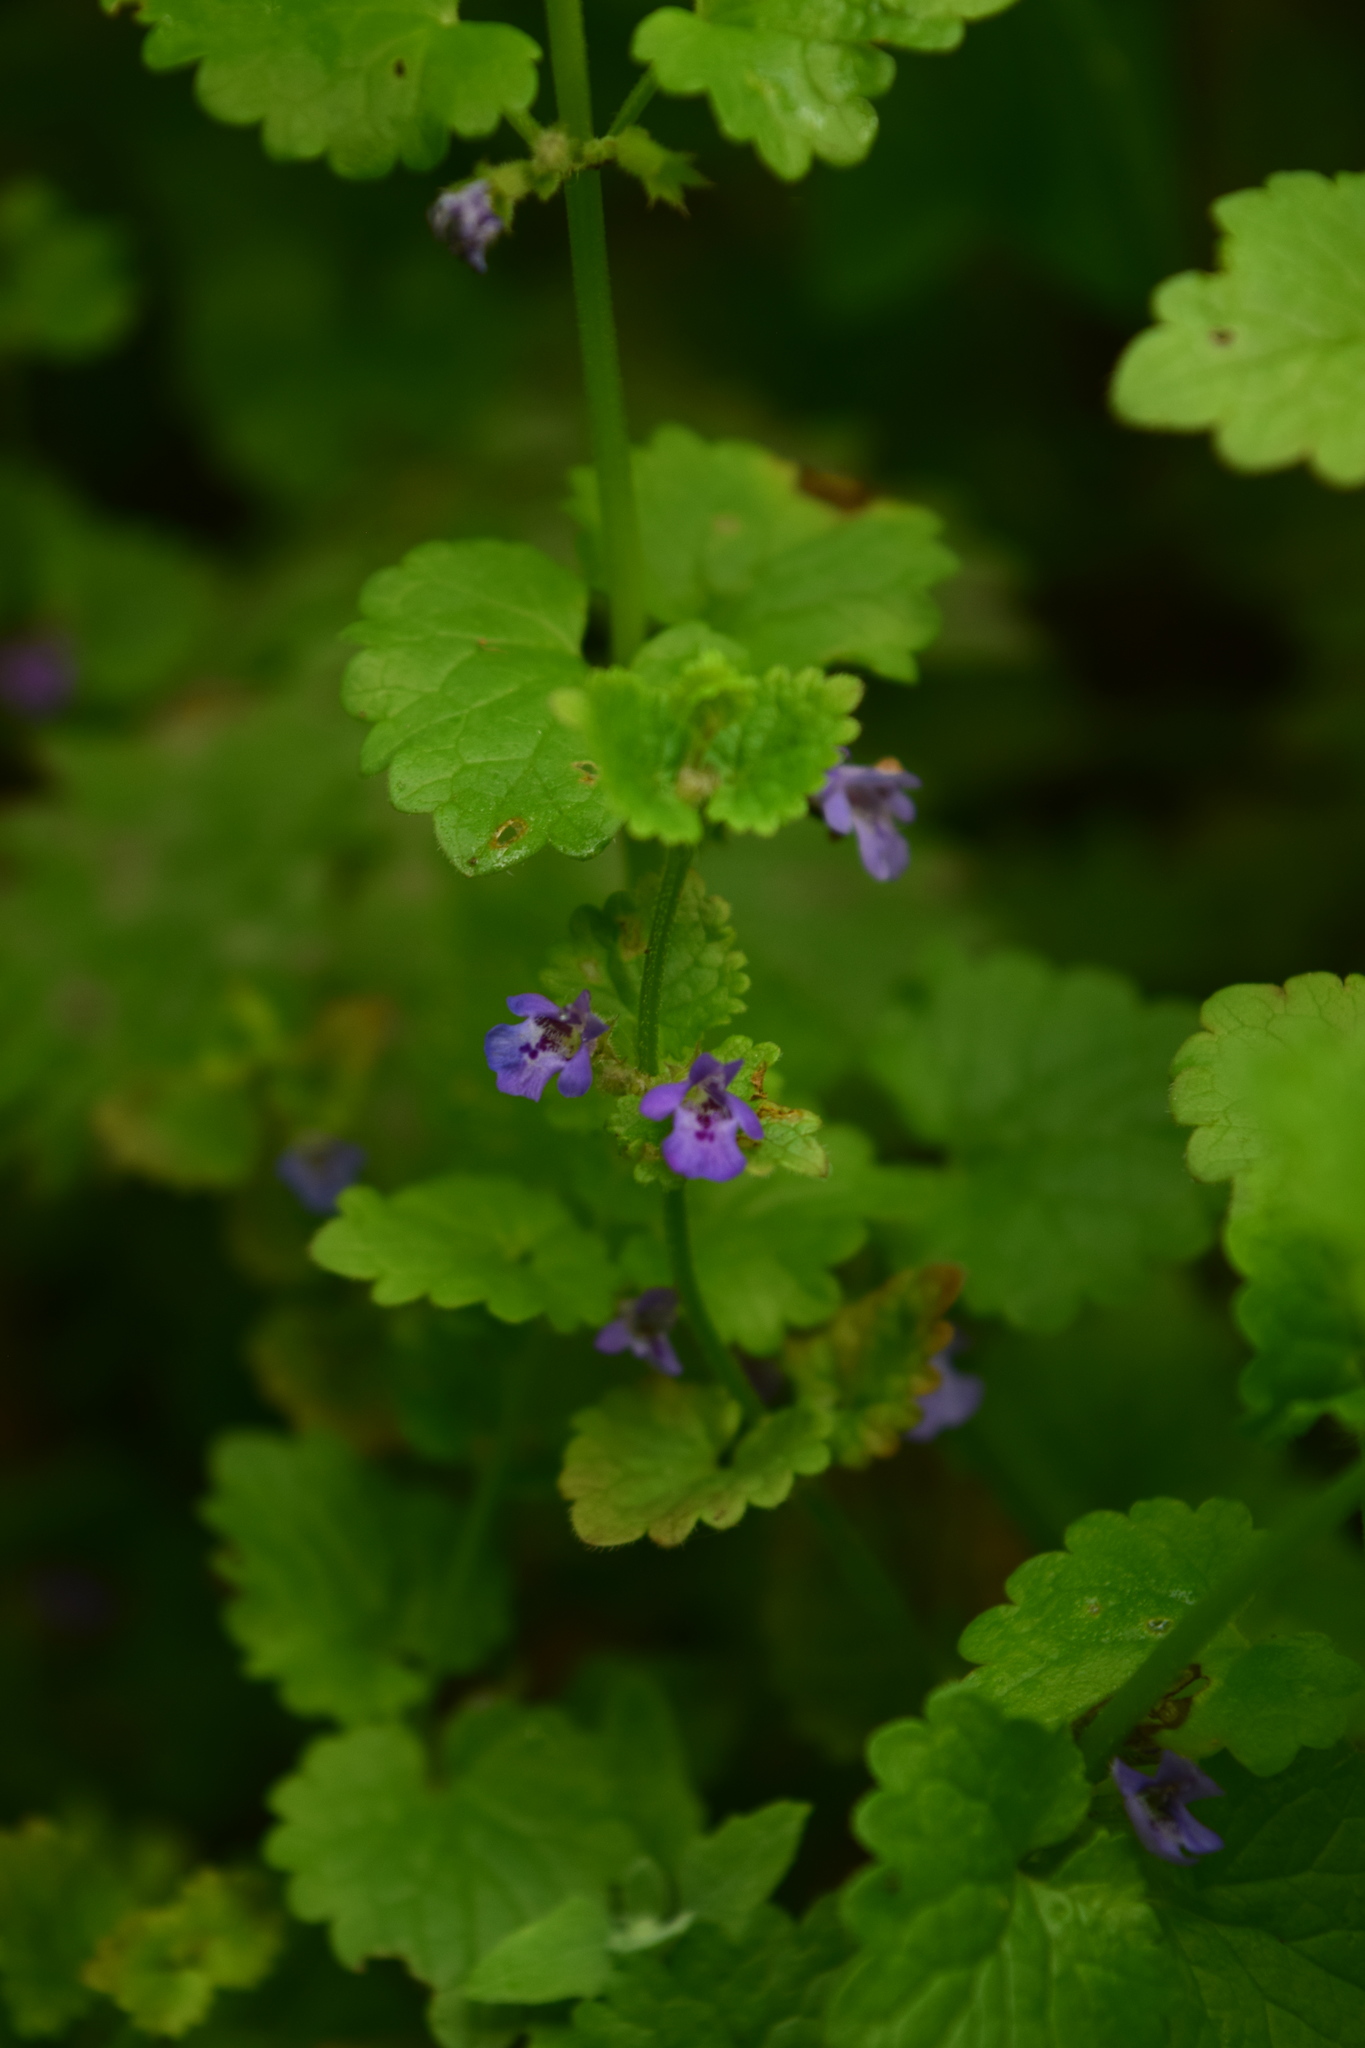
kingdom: Plantae
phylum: Tracheophyta
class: Magnoliopsida
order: Lamiales
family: Lamiaceae
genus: Glechoma
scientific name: Glechoma hederacea
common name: Ground ivy
